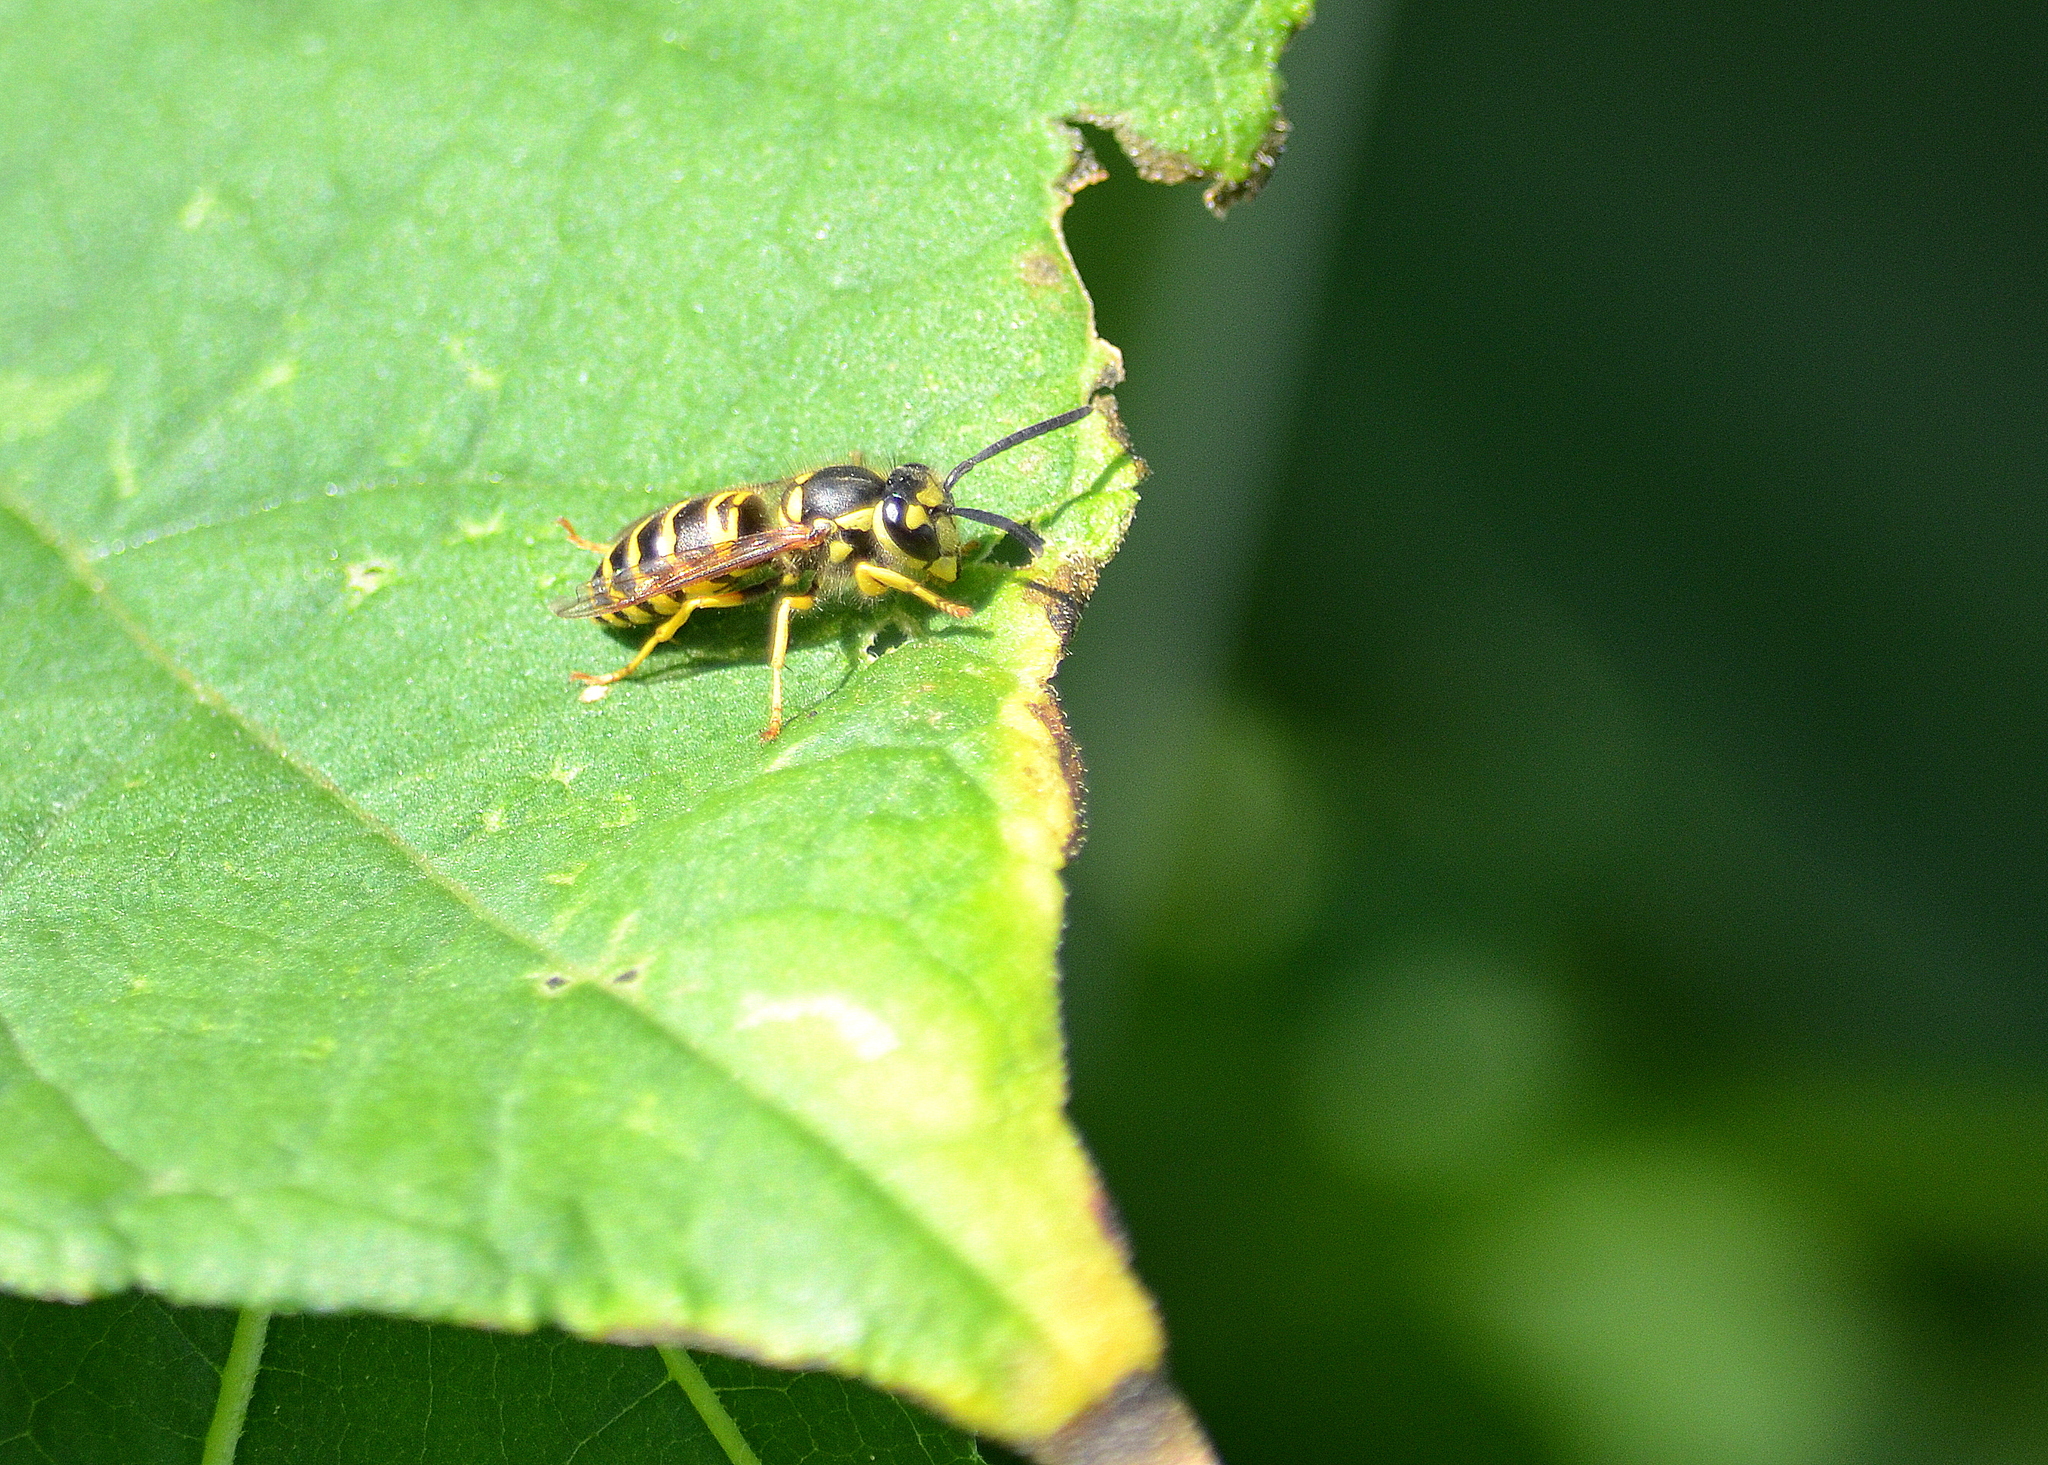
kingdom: Animalia
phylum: Arthropoda
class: Insecta
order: Hymenoptera
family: Vespidae
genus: Vespula
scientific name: Vespula maculifrons
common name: Eastern yellowjacket
